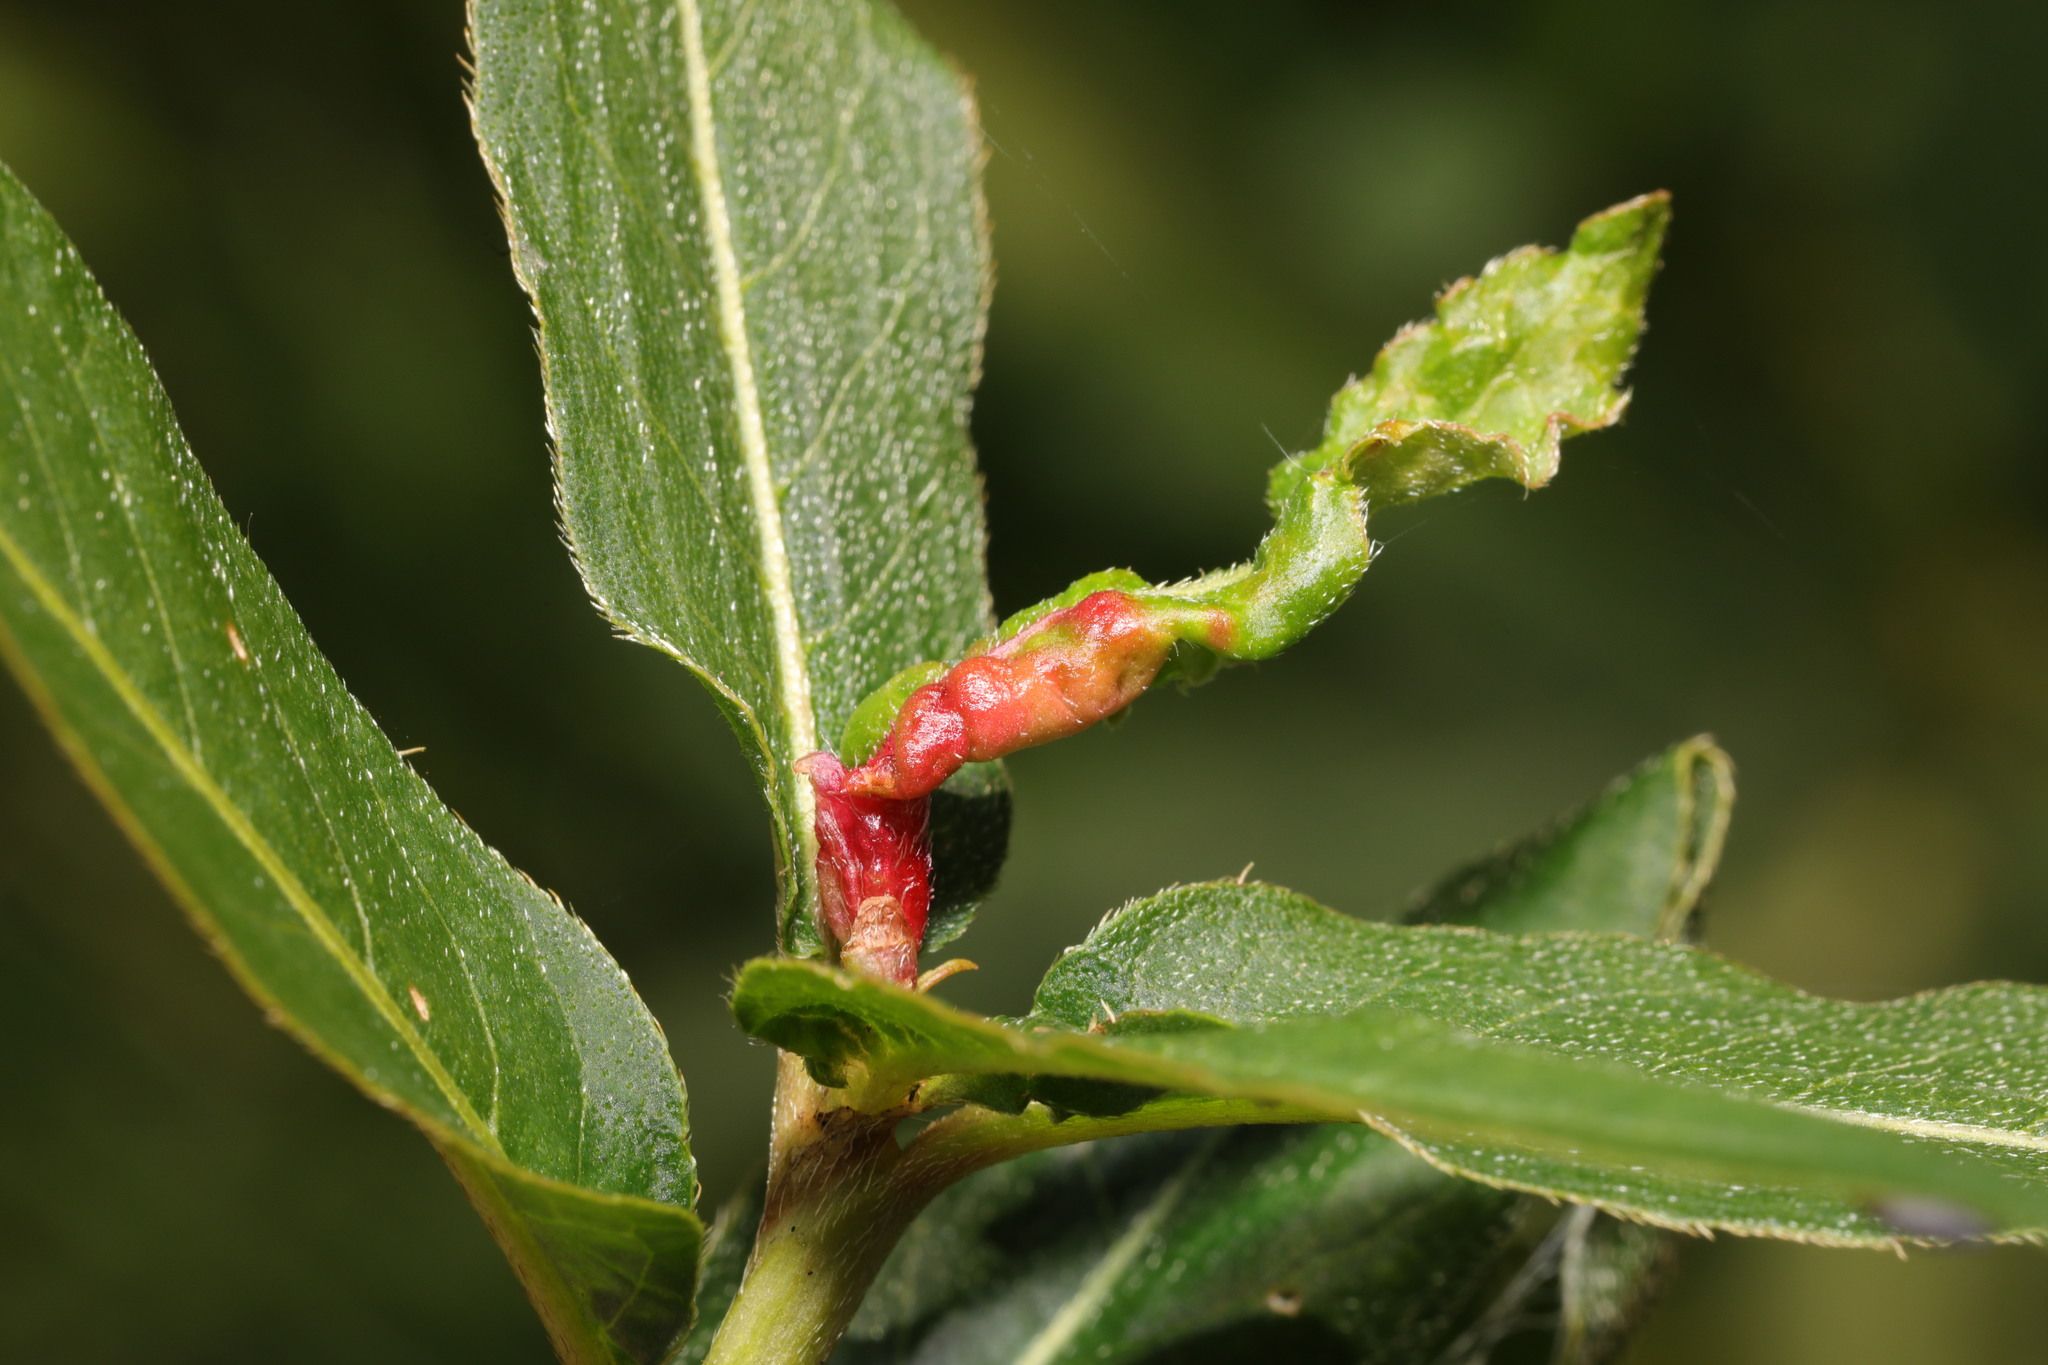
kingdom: Animalia
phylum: Arthropoda
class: Insecta
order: Diptera
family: Cecidomyiidae
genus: Wachtliella
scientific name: Wachtliella persicariae
